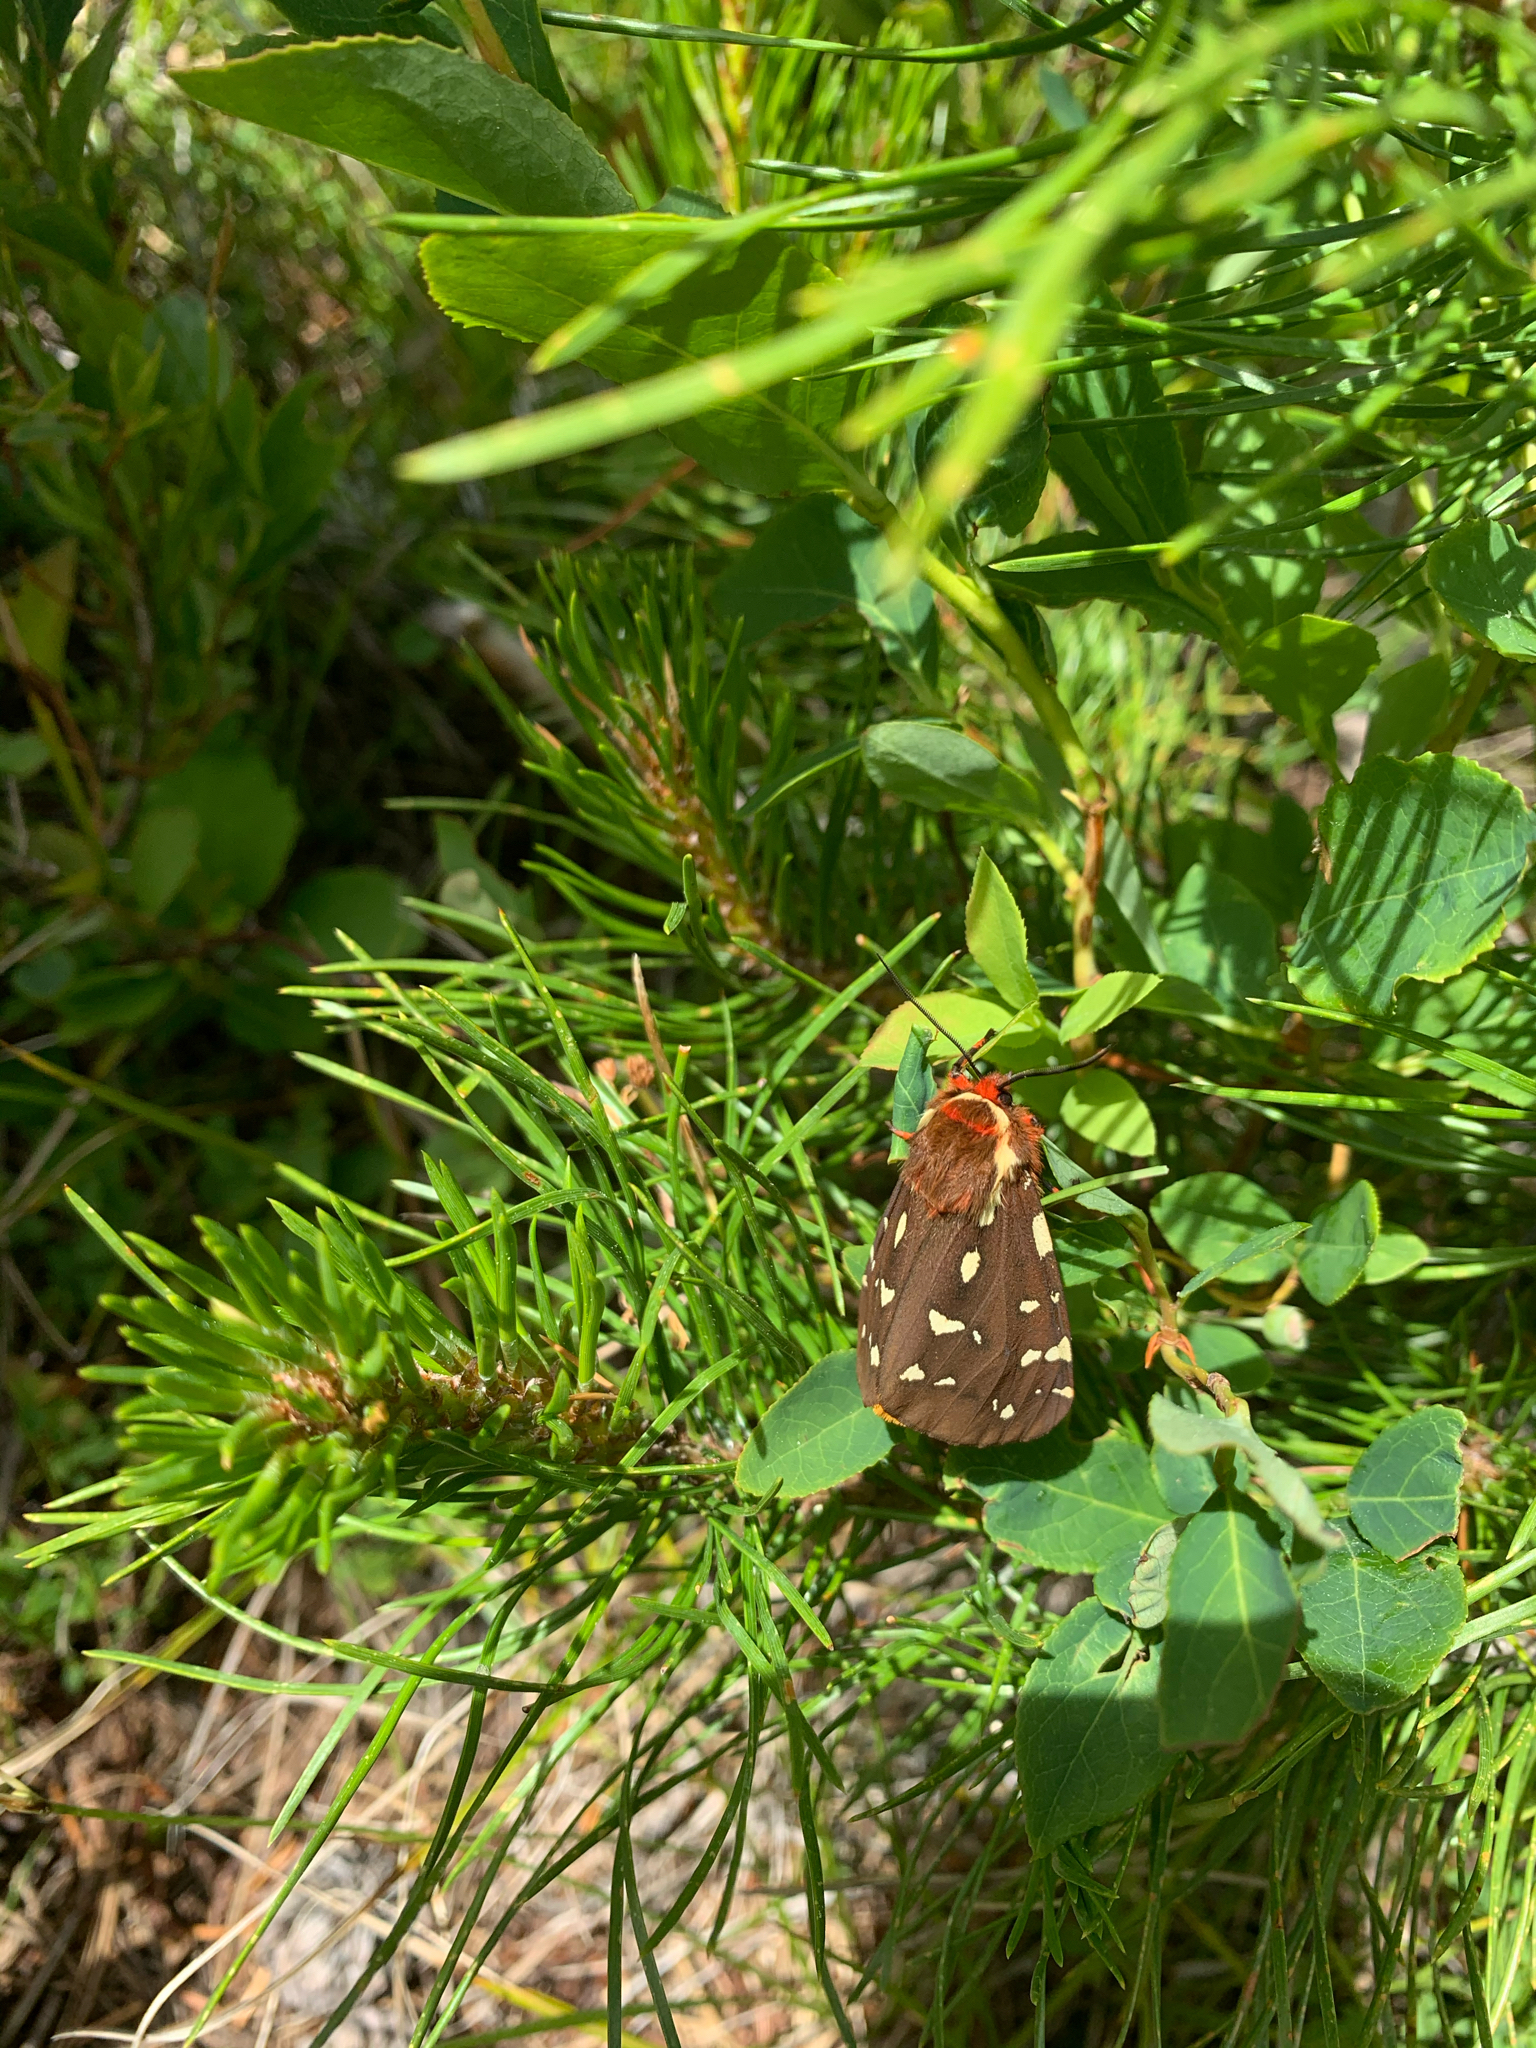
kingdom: Animalia
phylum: Arthropoda
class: Insecta
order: Lepidoptera
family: Erebidae
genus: Arctia
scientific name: Arctia parthenos
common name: St. lawrence tiger moth
